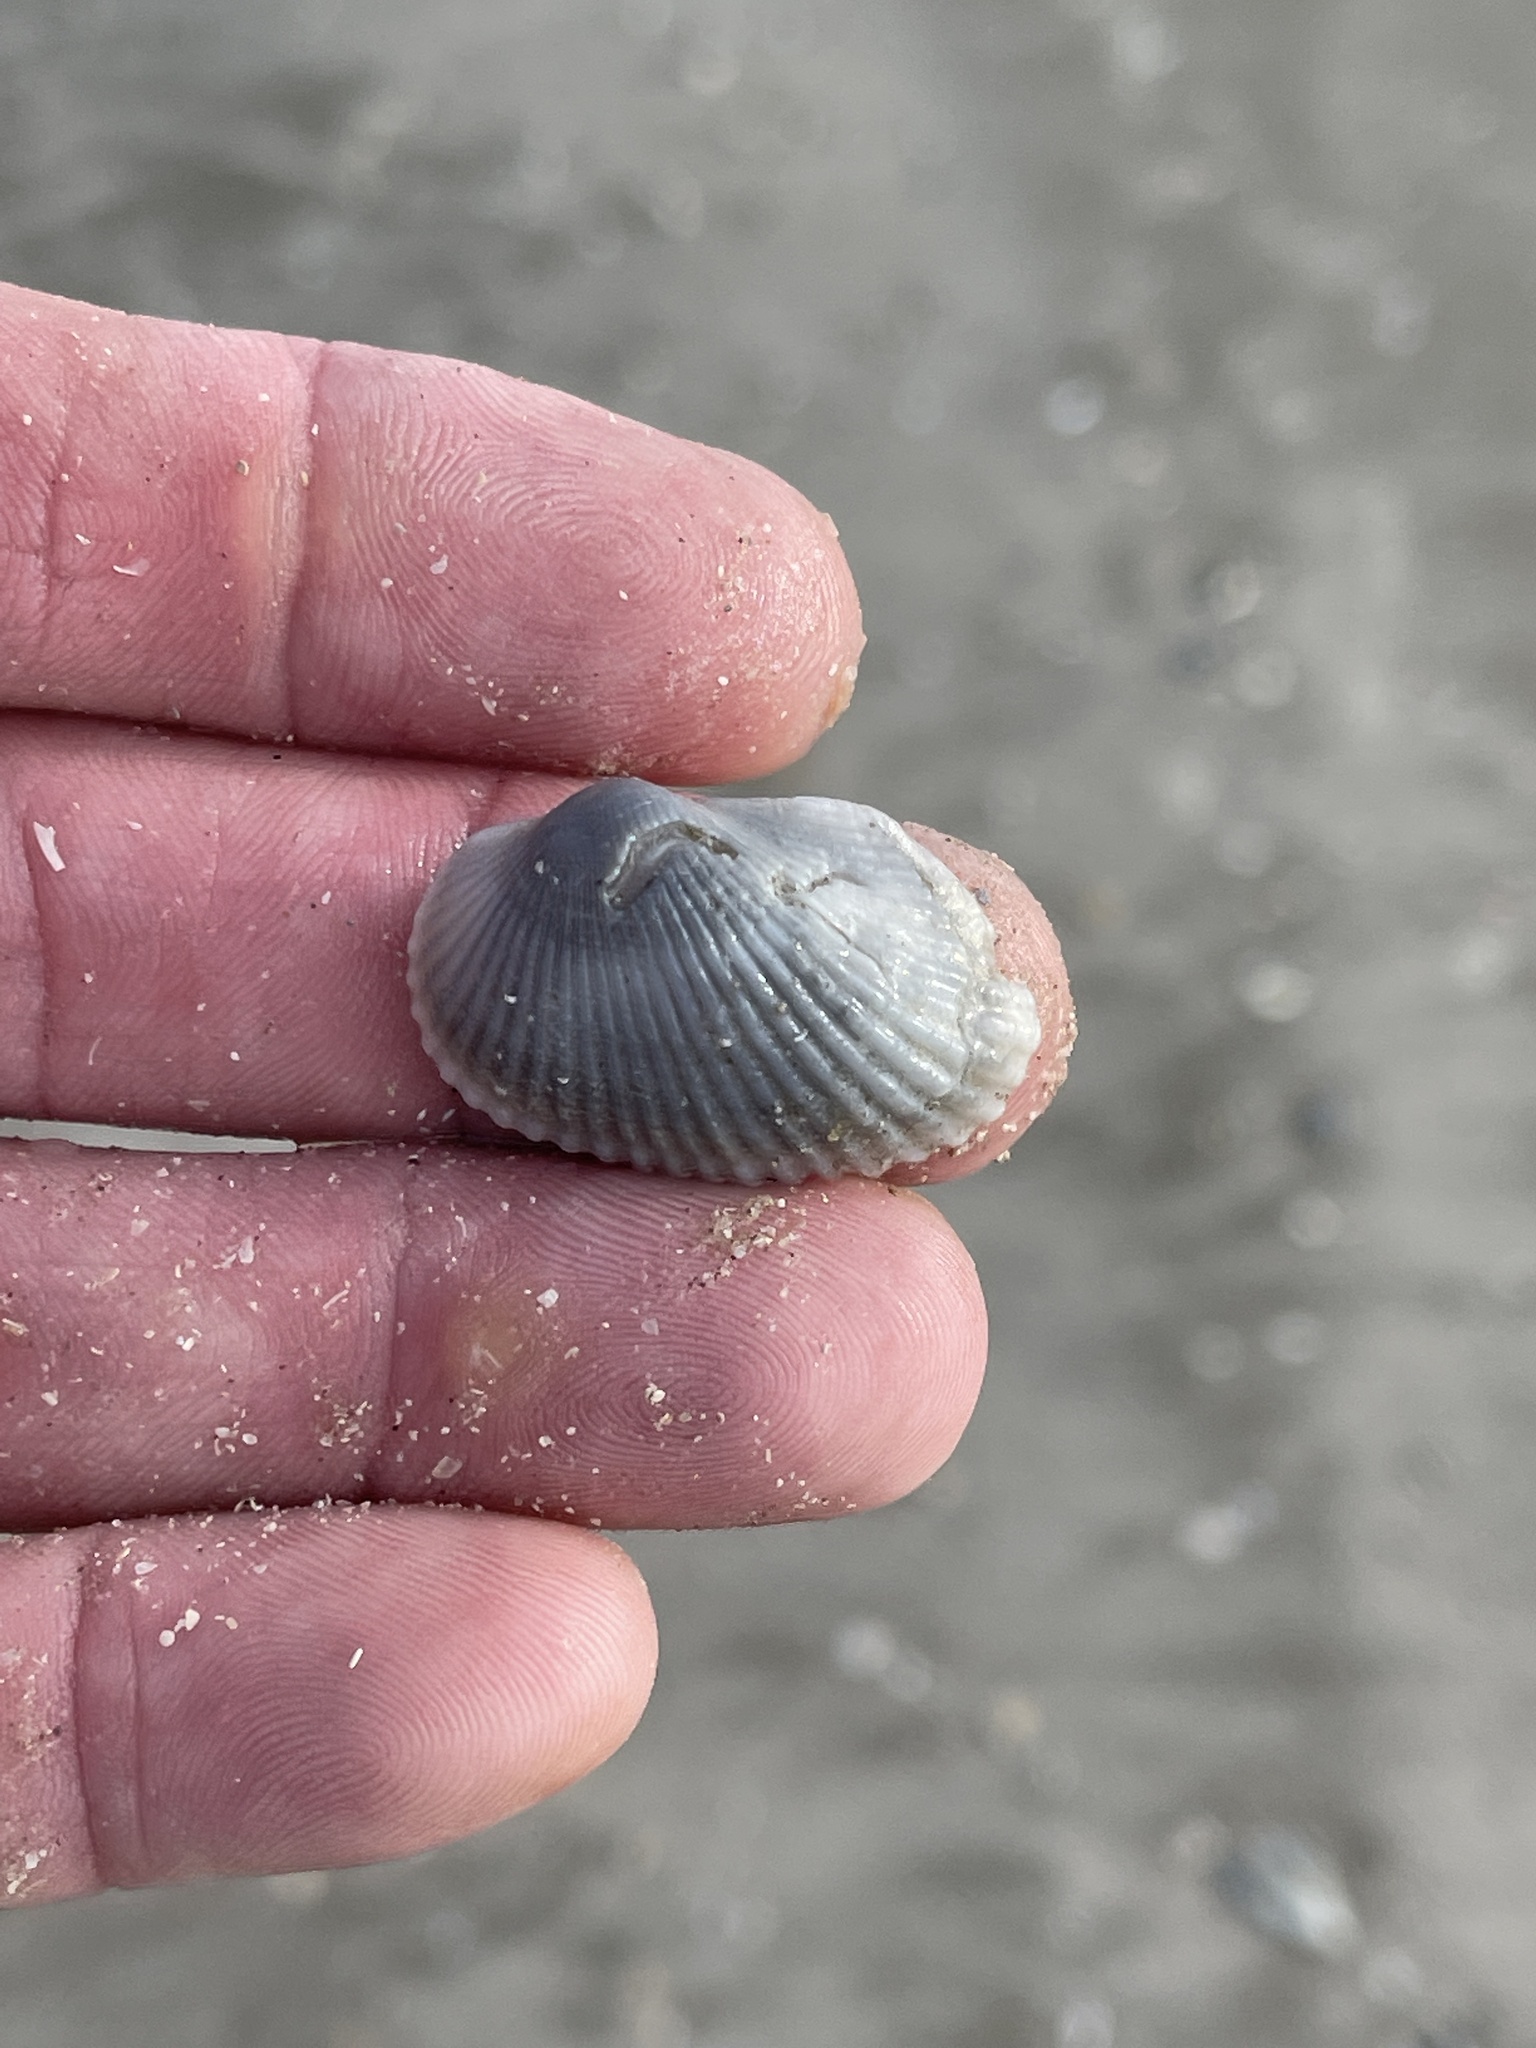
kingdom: Animalia
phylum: Mollusca
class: Bivalvia
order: Arcida
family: Arcidae
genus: Anadara
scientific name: Anadara transversa
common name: Transverse ark
